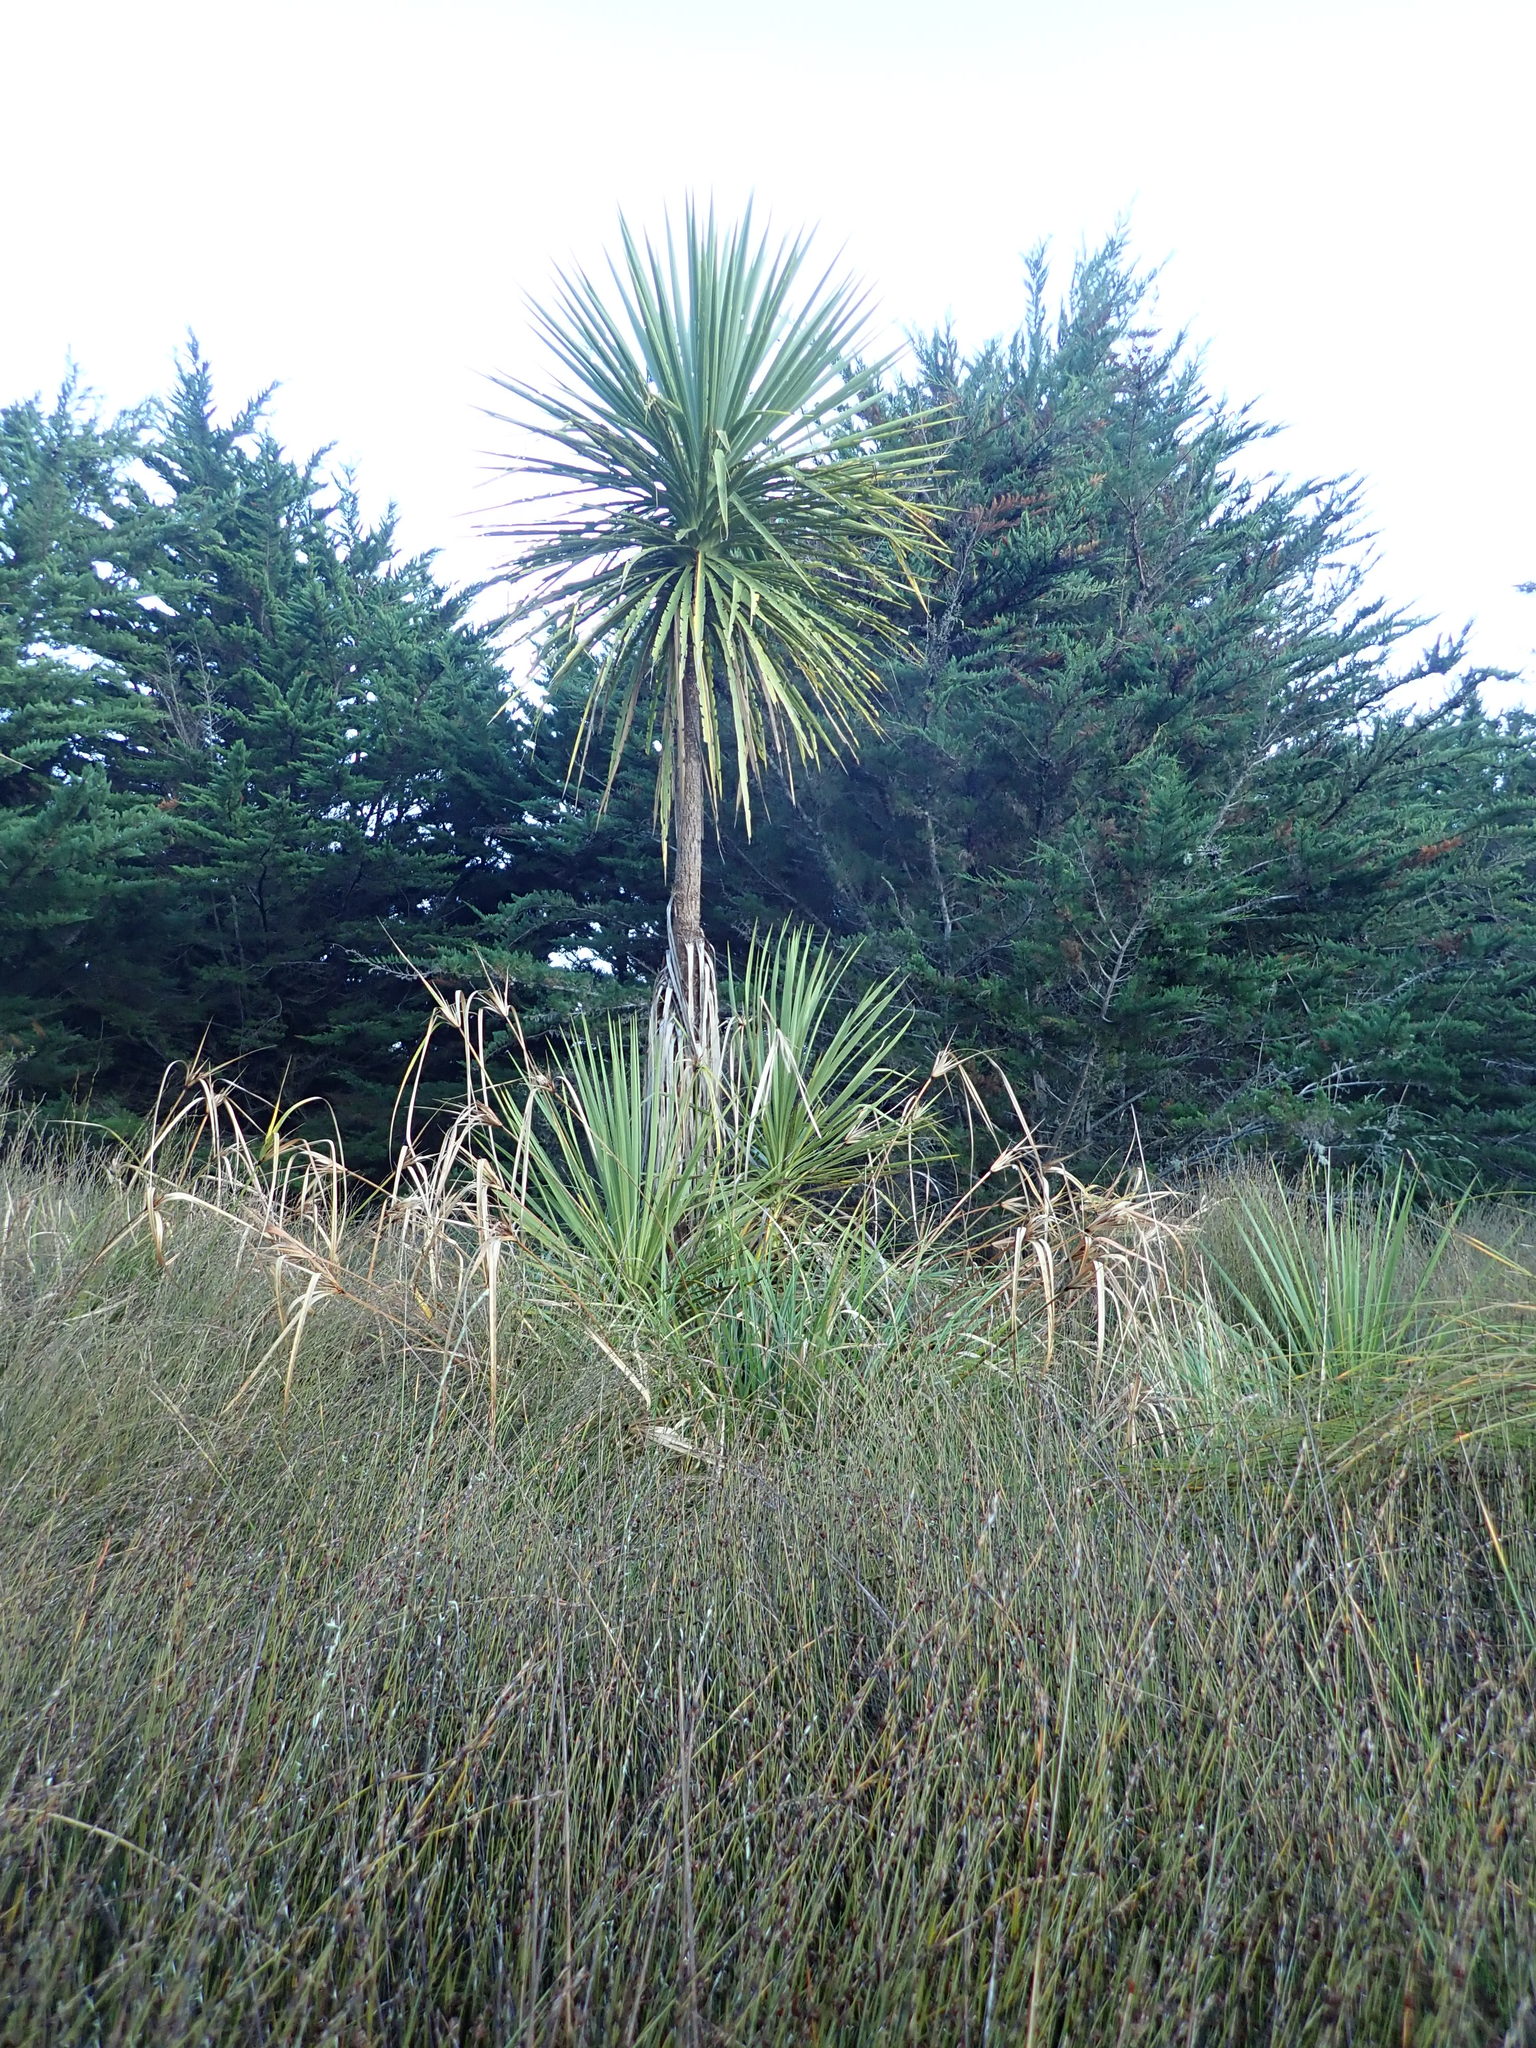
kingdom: Plantae
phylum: Tracheophyta
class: Liliopsida
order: Asparagales
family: Asparagaceae
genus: Cordyline
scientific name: Cordyline australis
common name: Cabbage-palm
